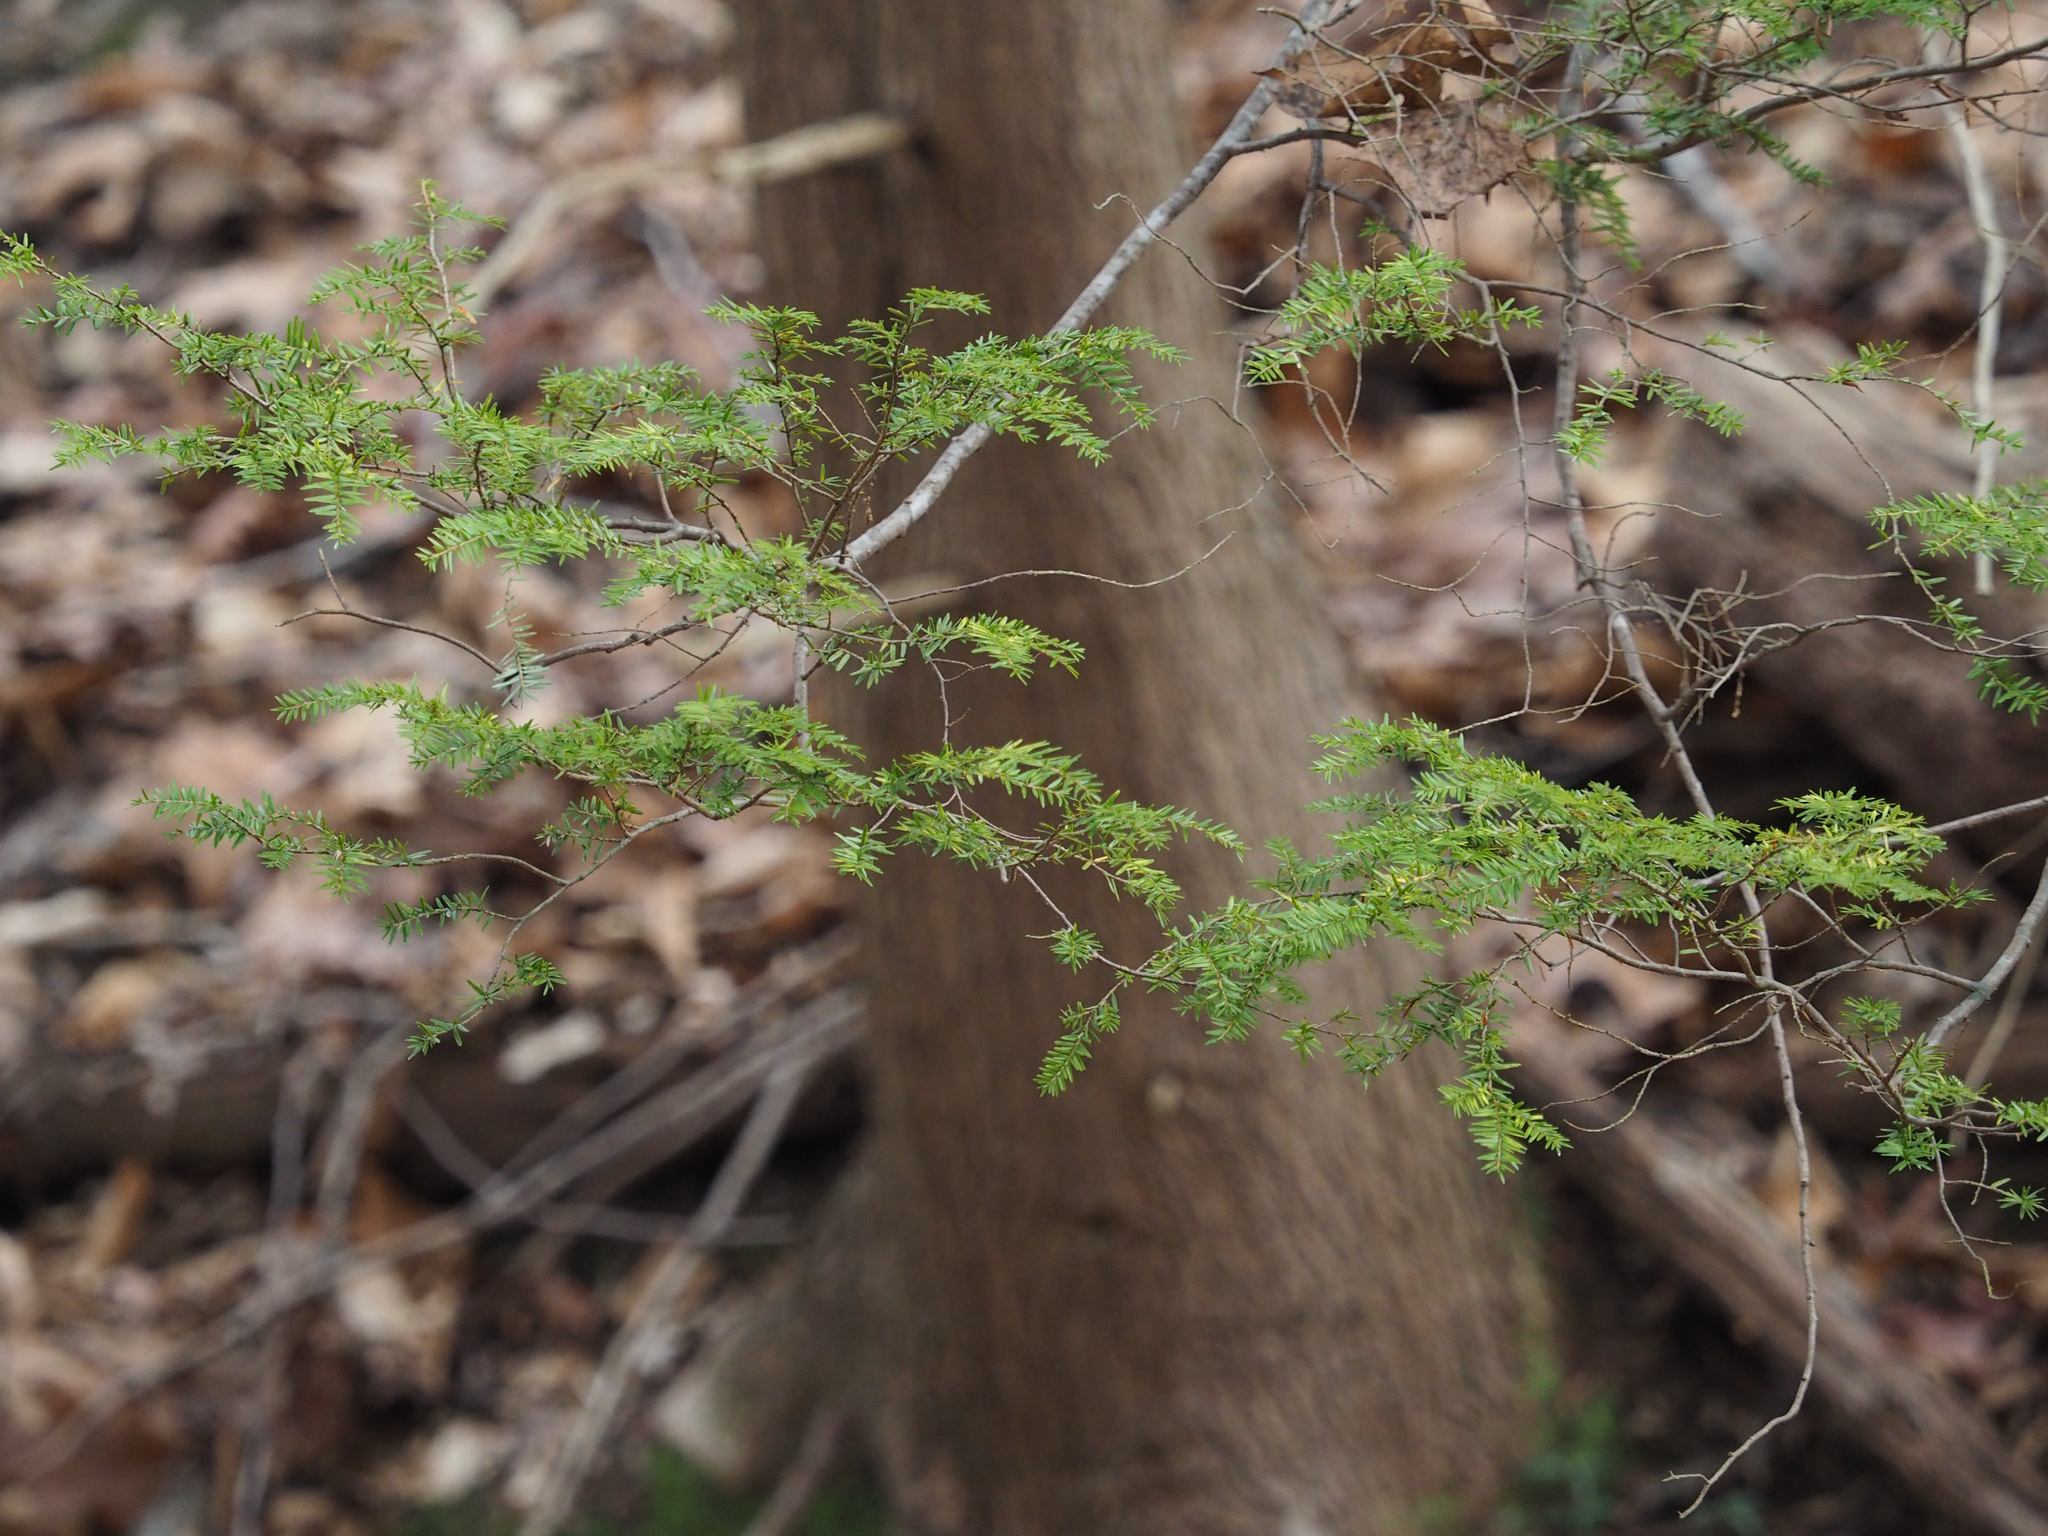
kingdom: Plantae
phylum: Tracheophyta
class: Pinopsida
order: Pinales
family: Pinaceae
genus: Tsuga
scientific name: Tsuga canadensis
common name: Eastern hemlock
